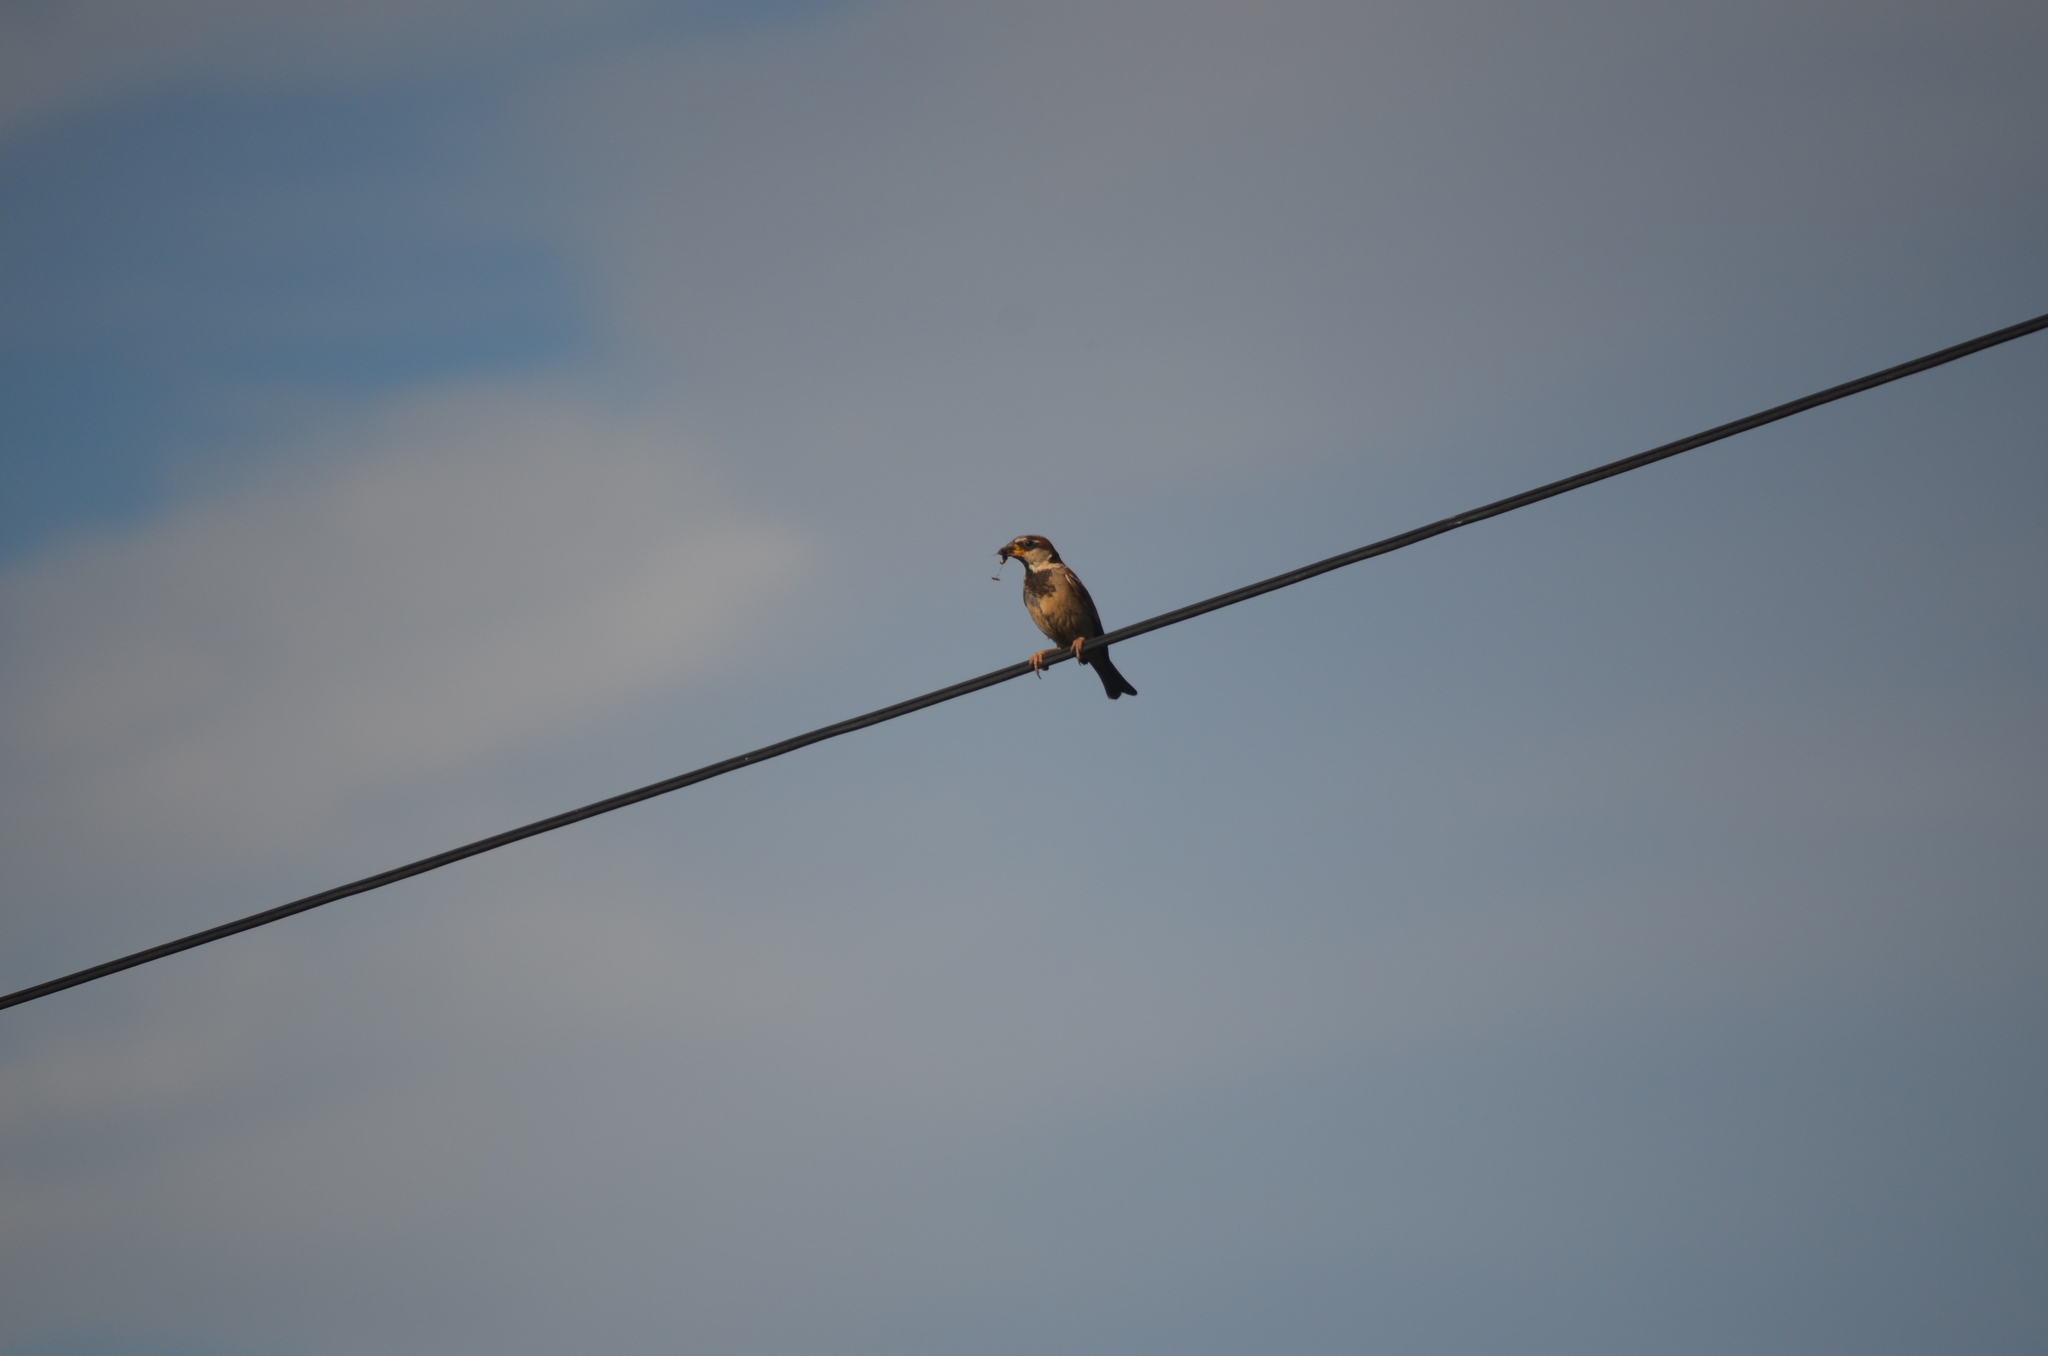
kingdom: Animalia
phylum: Chordata
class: Aves
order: Passeriformes
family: Passeridae
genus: Passer
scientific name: Passer domesticus
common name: House sparrow
